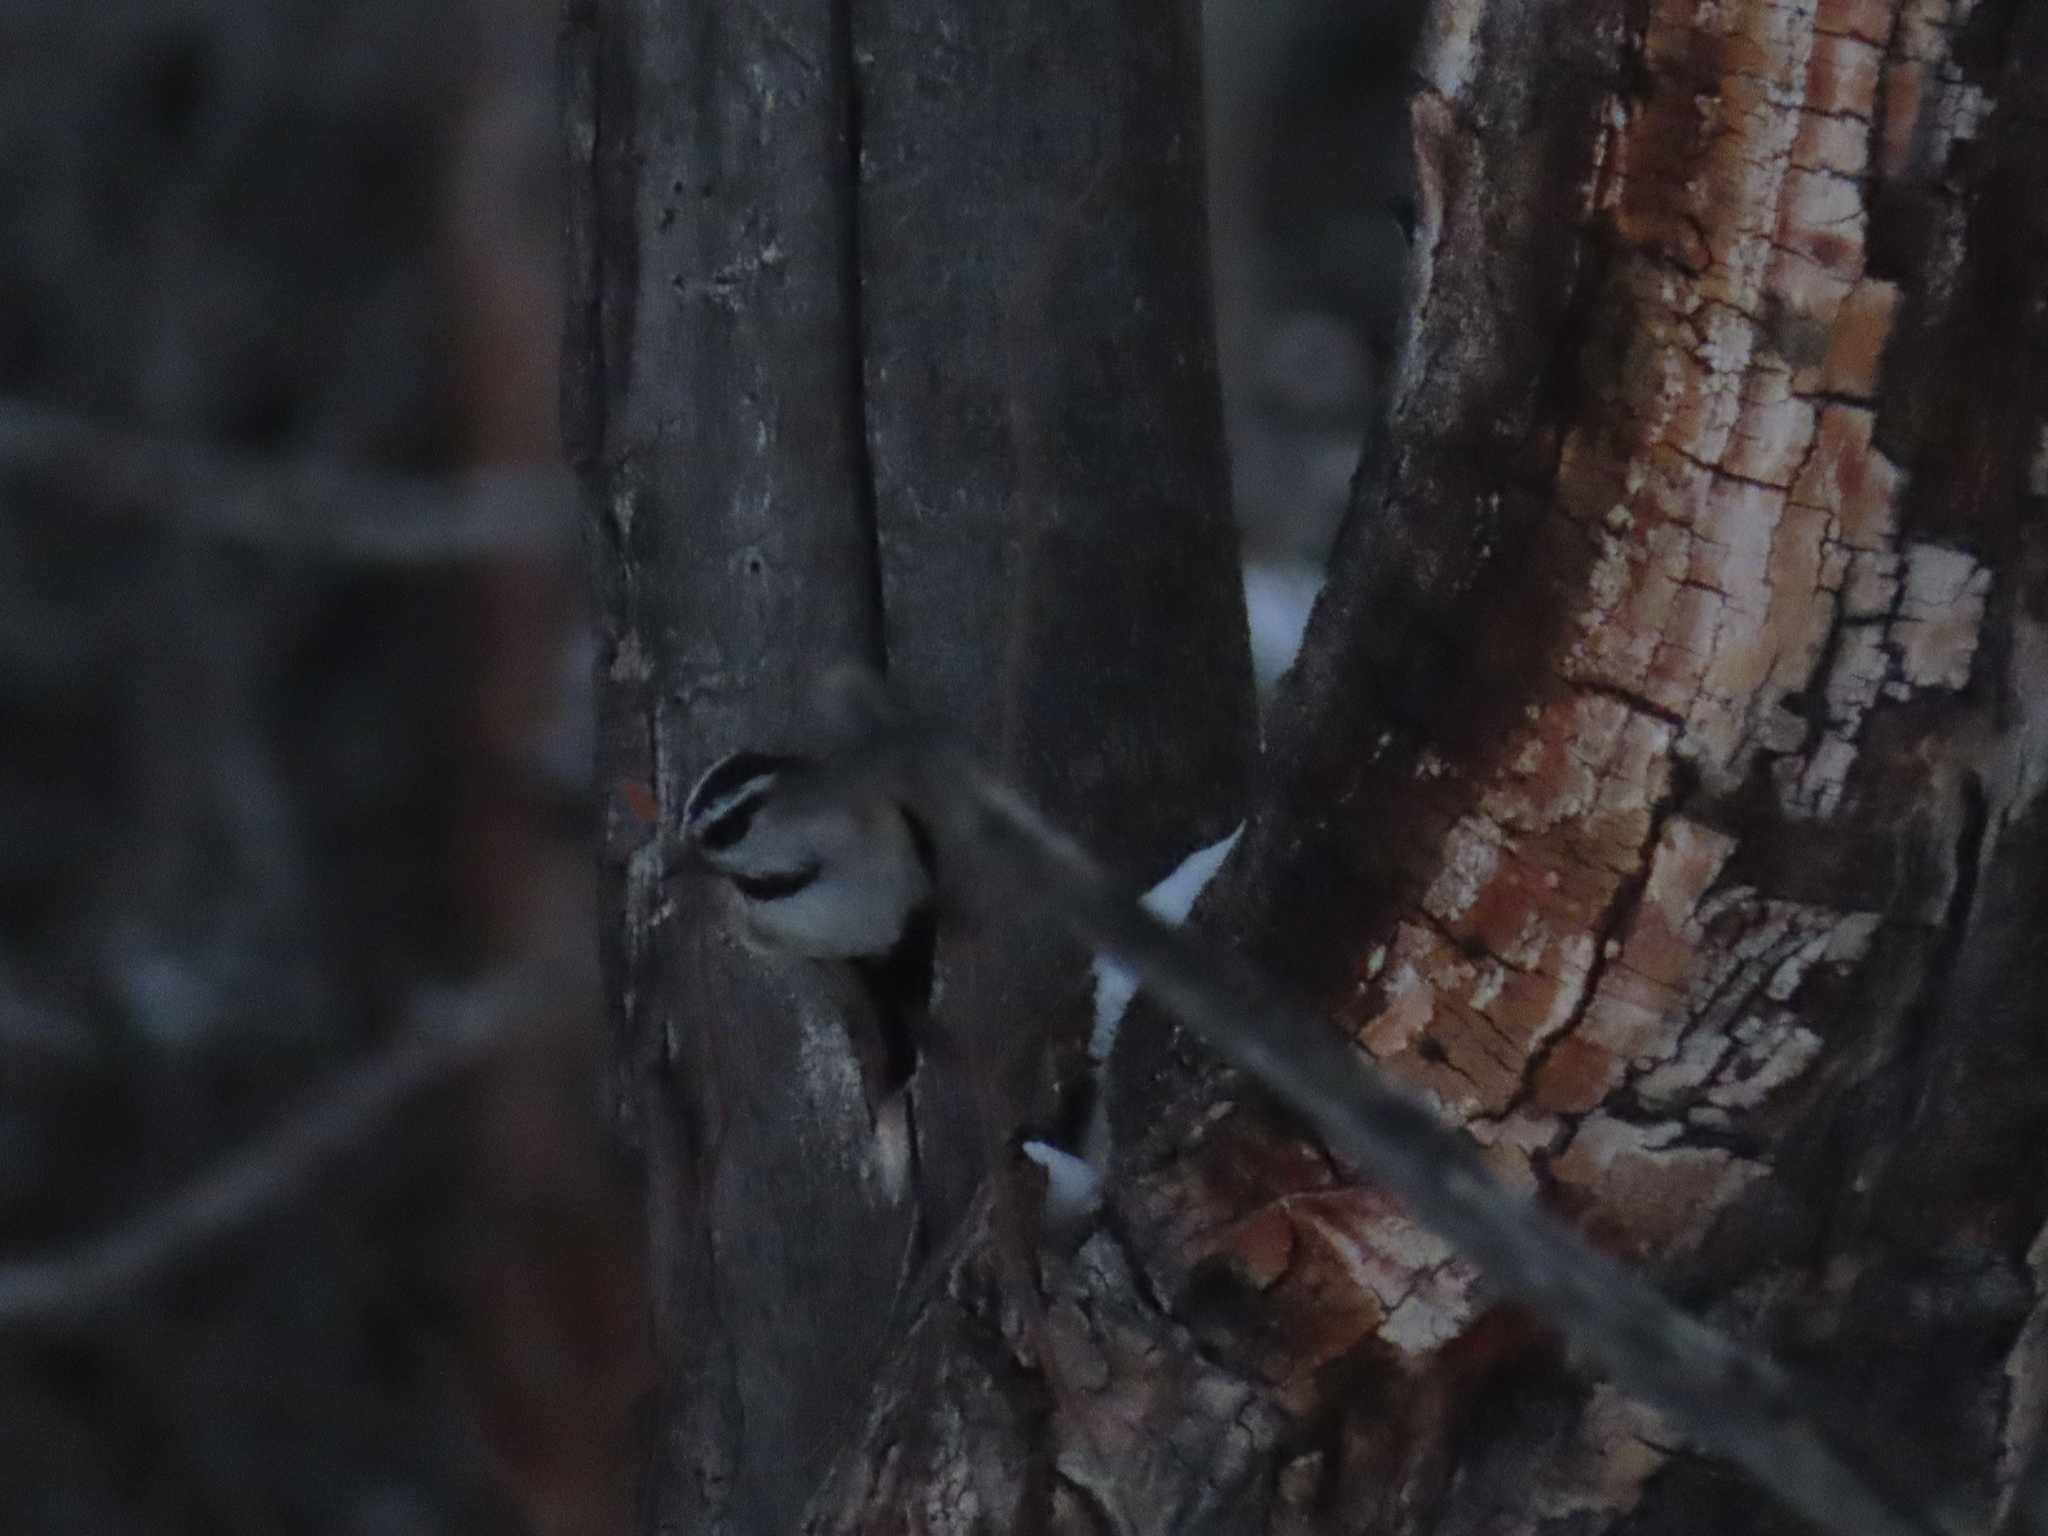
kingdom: Animalia
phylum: Chordata
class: Aves
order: Passeriformes
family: Paridae
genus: Poecile
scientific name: Poecile gambeli
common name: Mountain chickadee
